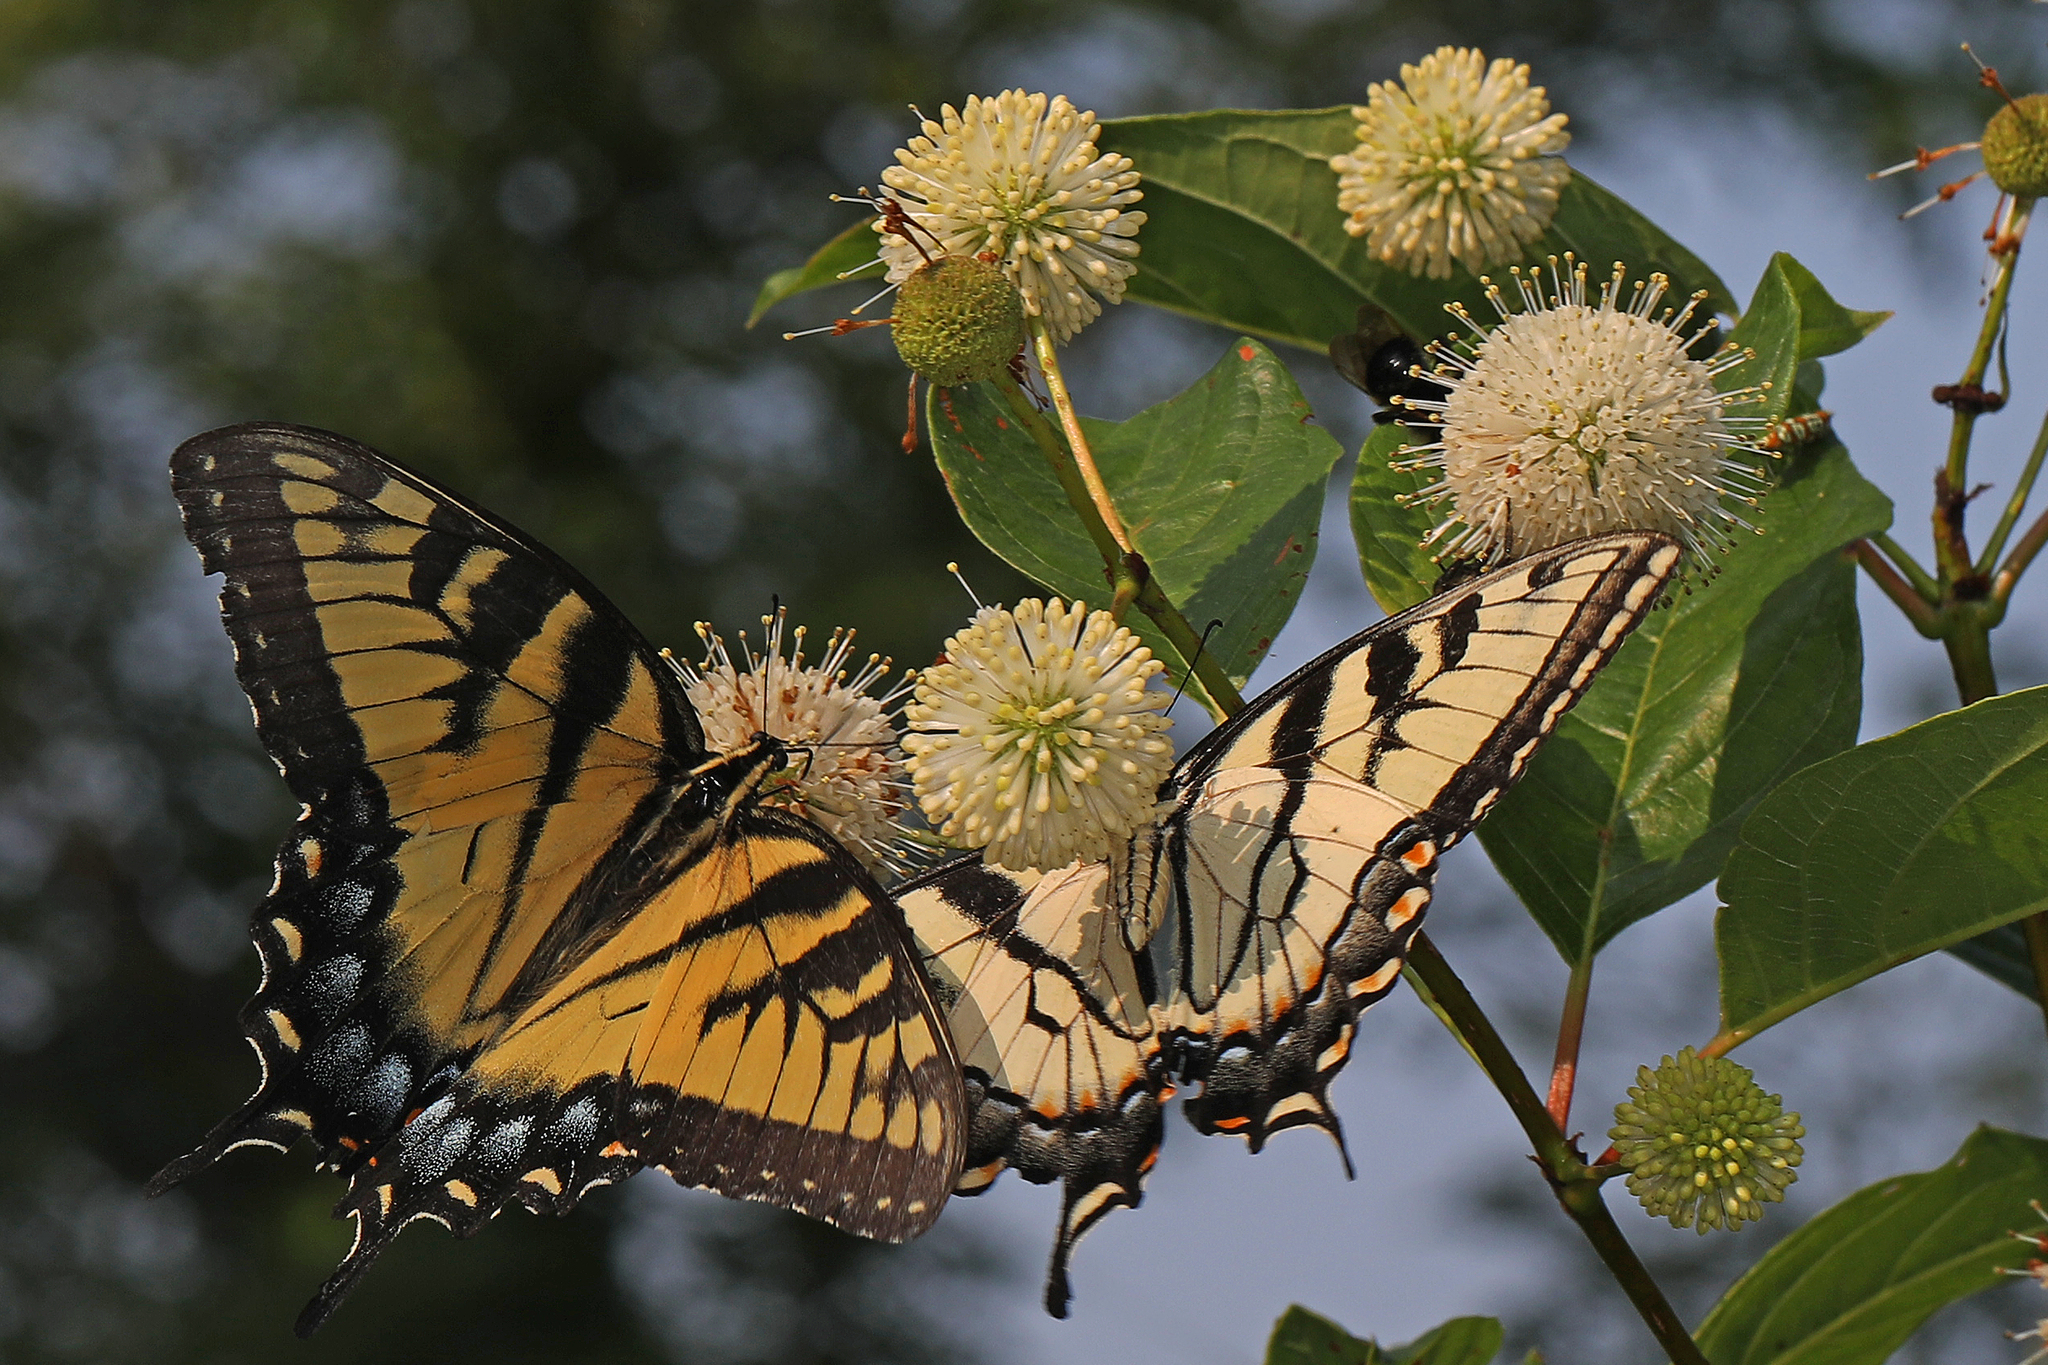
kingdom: Animalia
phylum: Arthropoda
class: Insecta
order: Lepidoptera
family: Papilionidae
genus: Papilio
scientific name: Papilio glaucus
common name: Tiger swallowtail
